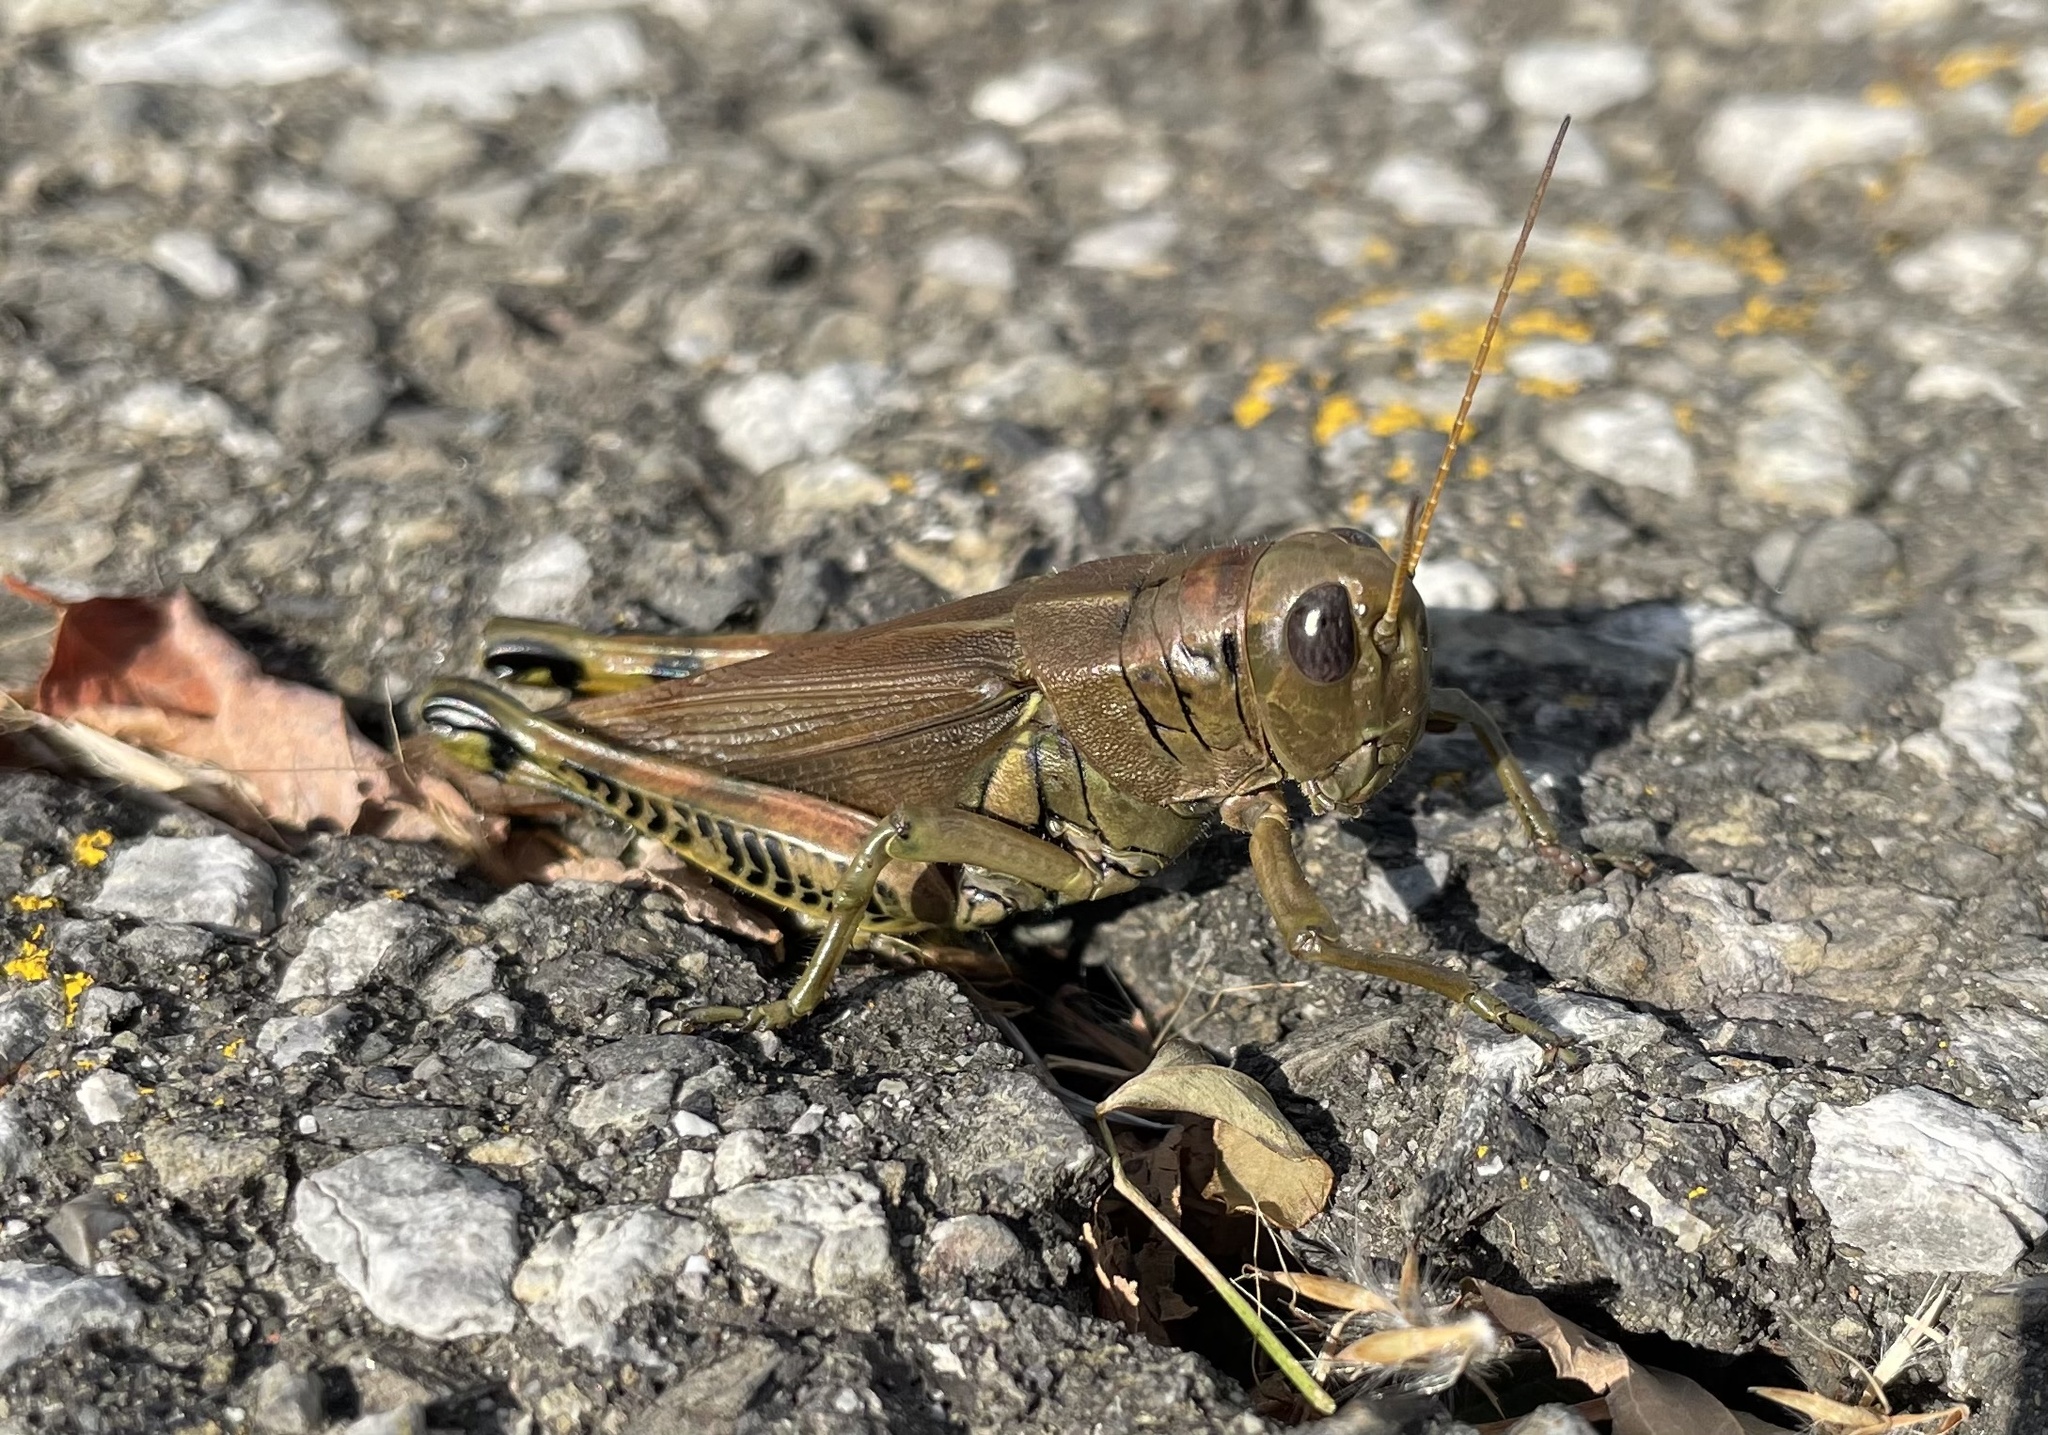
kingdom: Animalia
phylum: Arthropoda
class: Insecta
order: Orthoptera
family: Acrididae
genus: Melanoplus
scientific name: Melanoplus differentialis
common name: Differential grasshopper
